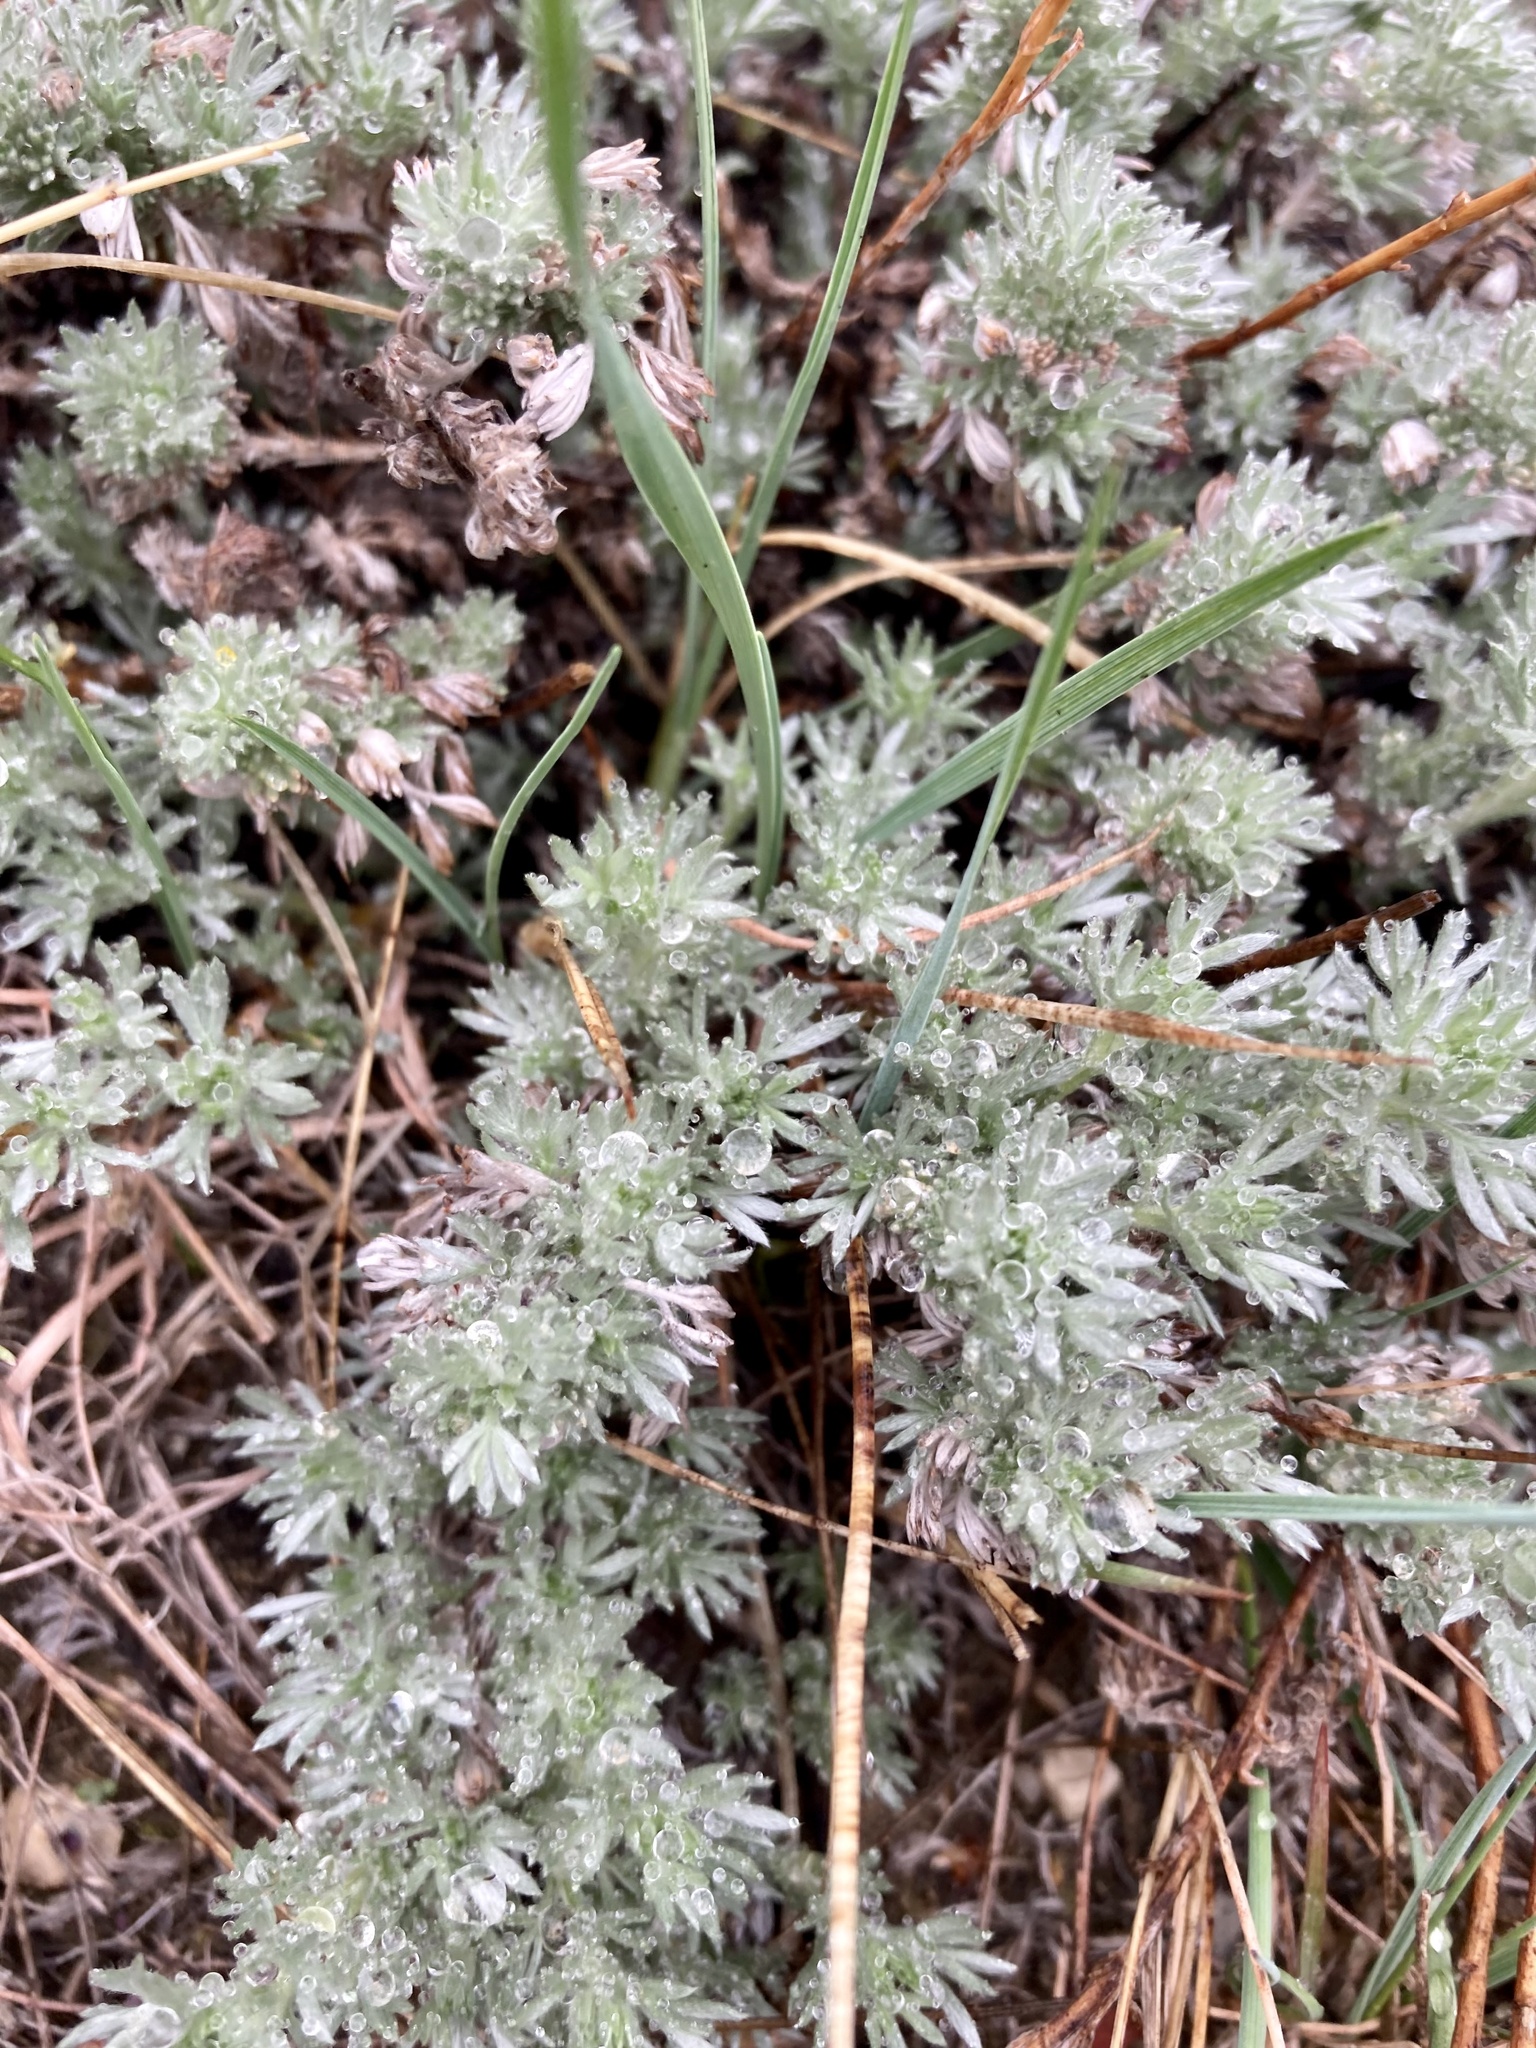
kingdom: Plantae
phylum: Tracheophyta
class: Magnoliopsida
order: Asterales
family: Asteraceae
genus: Artemisia
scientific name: Artemisia frigida
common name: Prairie sagewort
